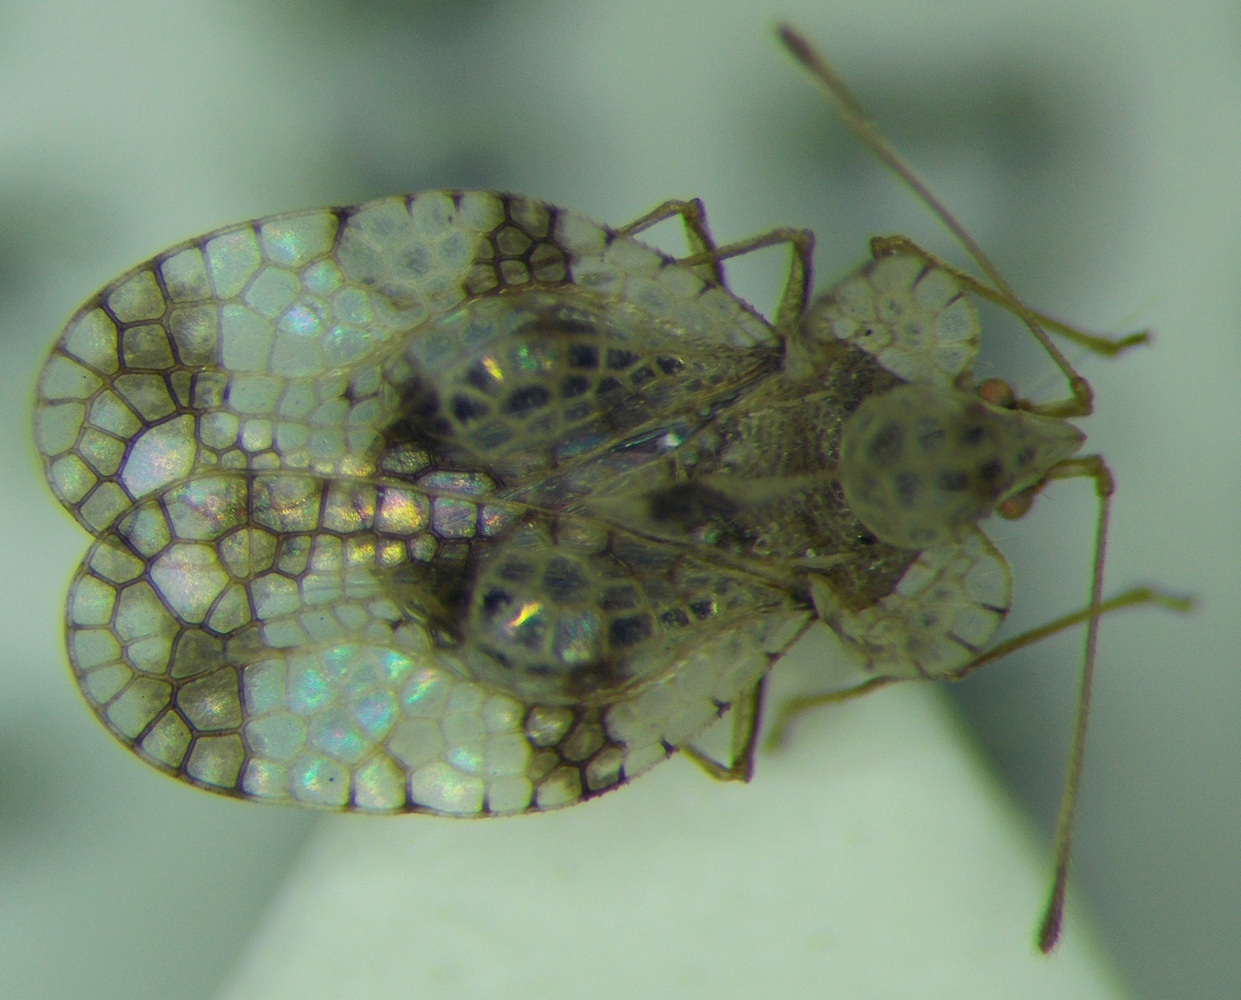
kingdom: Animalia
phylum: Arthropoda
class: Insecta
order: Hemiptera
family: Tingidae
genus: Stephanitis
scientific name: Stephanitis pyri
